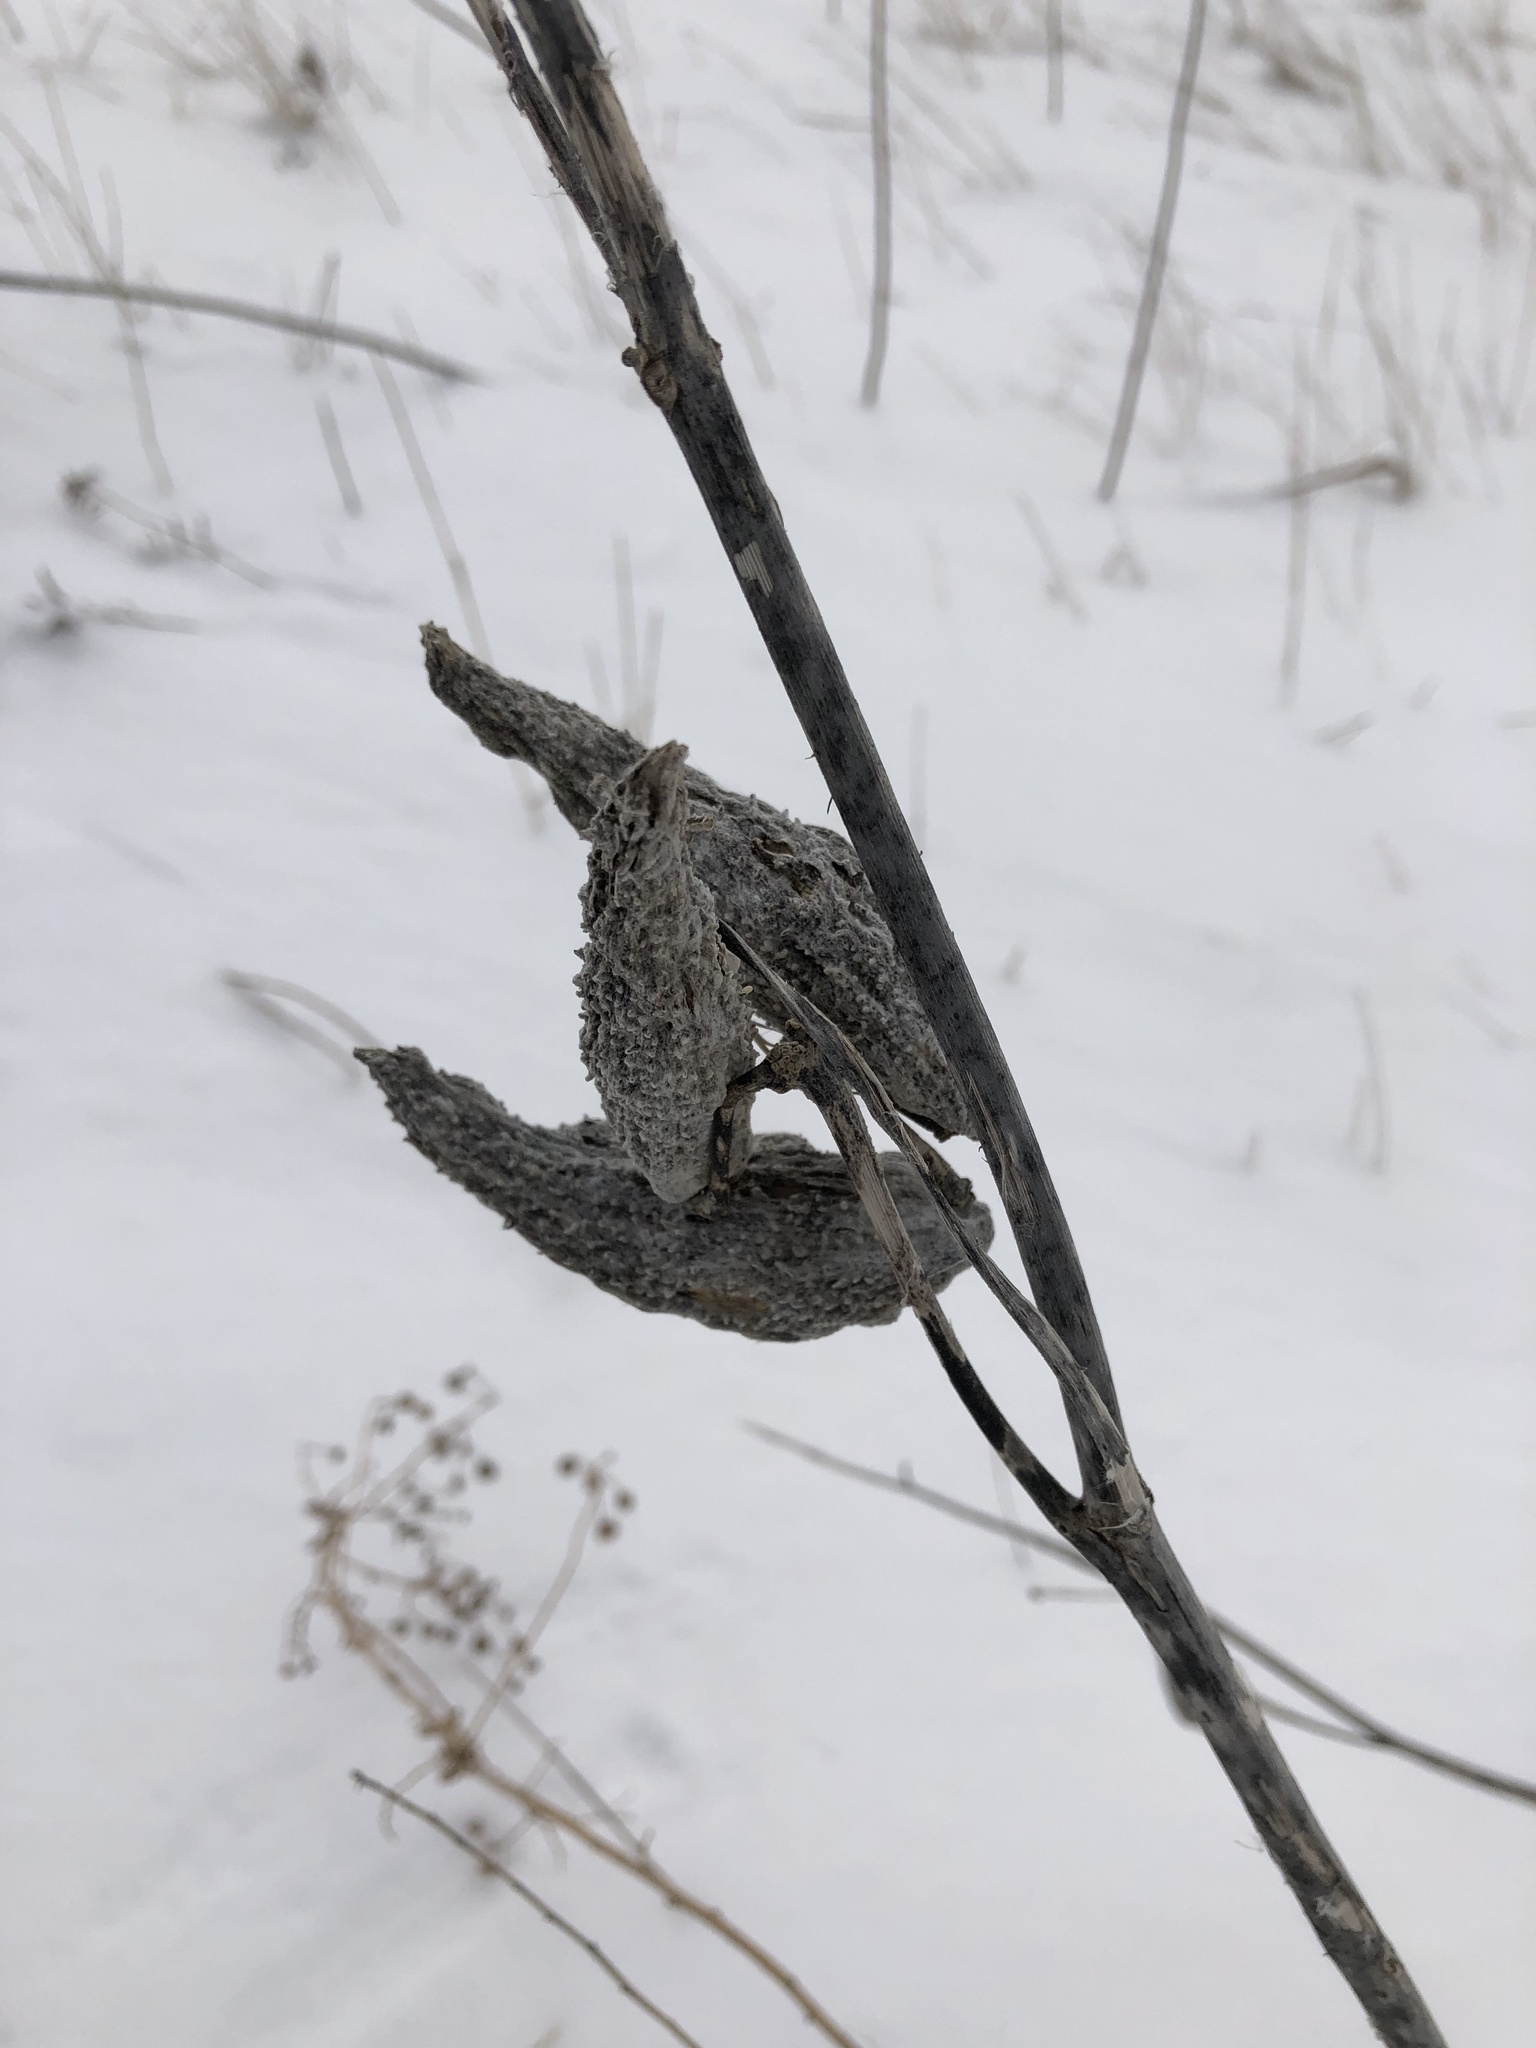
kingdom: Plantae
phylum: Tracheophyta
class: Magnoliopsida
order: Gentianales
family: Apocynaceae
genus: Asclepias
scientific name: Asclepias syriaca
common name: Common milkweed
